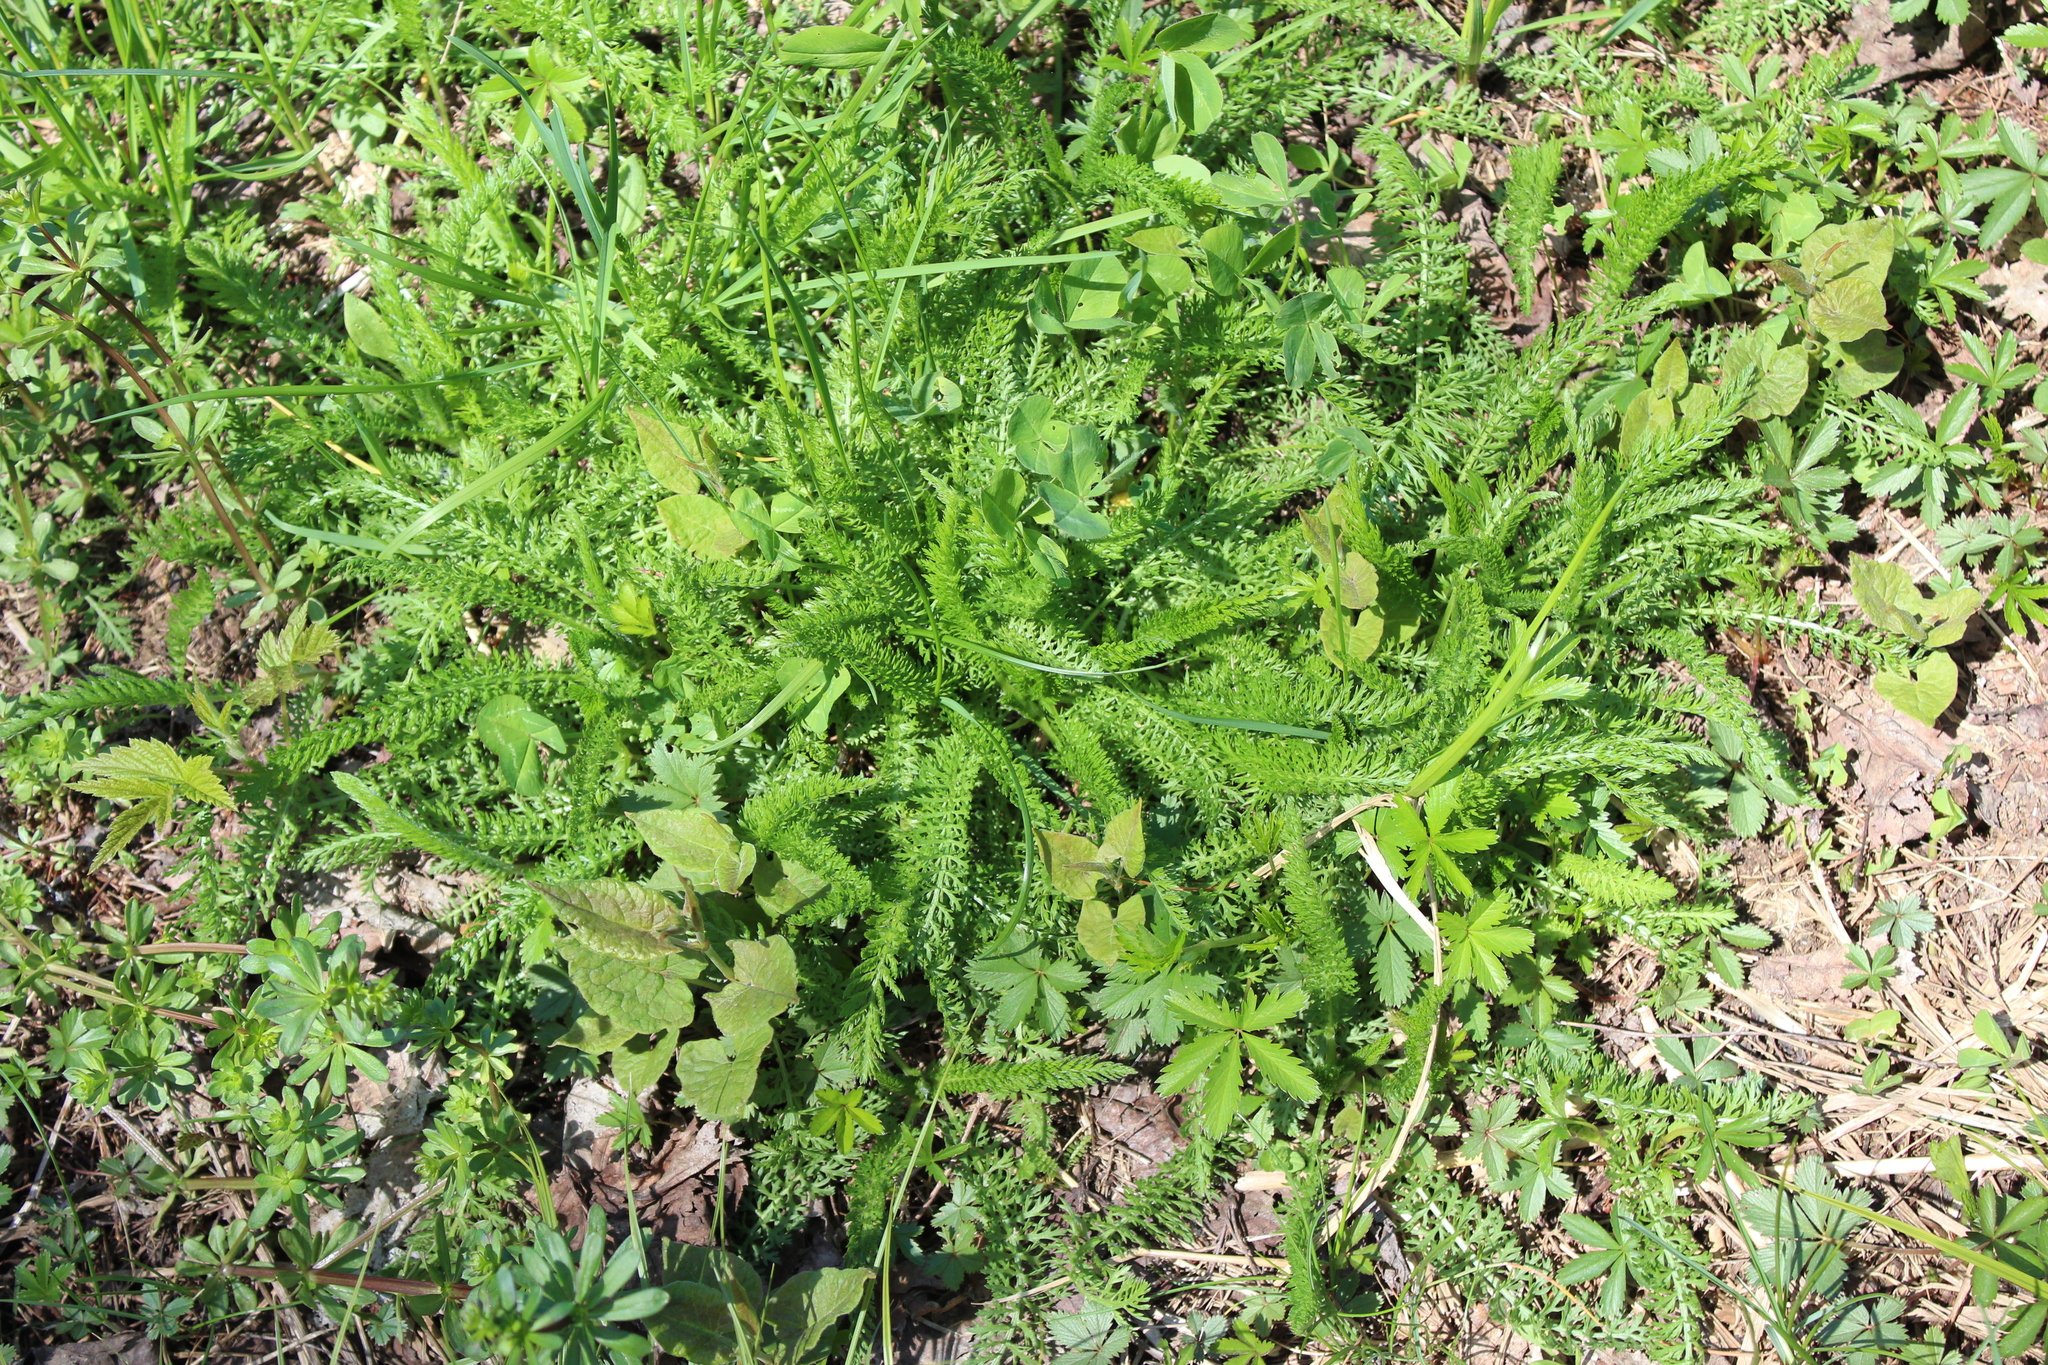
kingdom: Plantae
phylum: Tracheophyta
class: Magnoliopsida
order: Asterales
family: Asteraceae
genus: Achillea
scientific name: Achillea millefolium
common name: Yarrow
